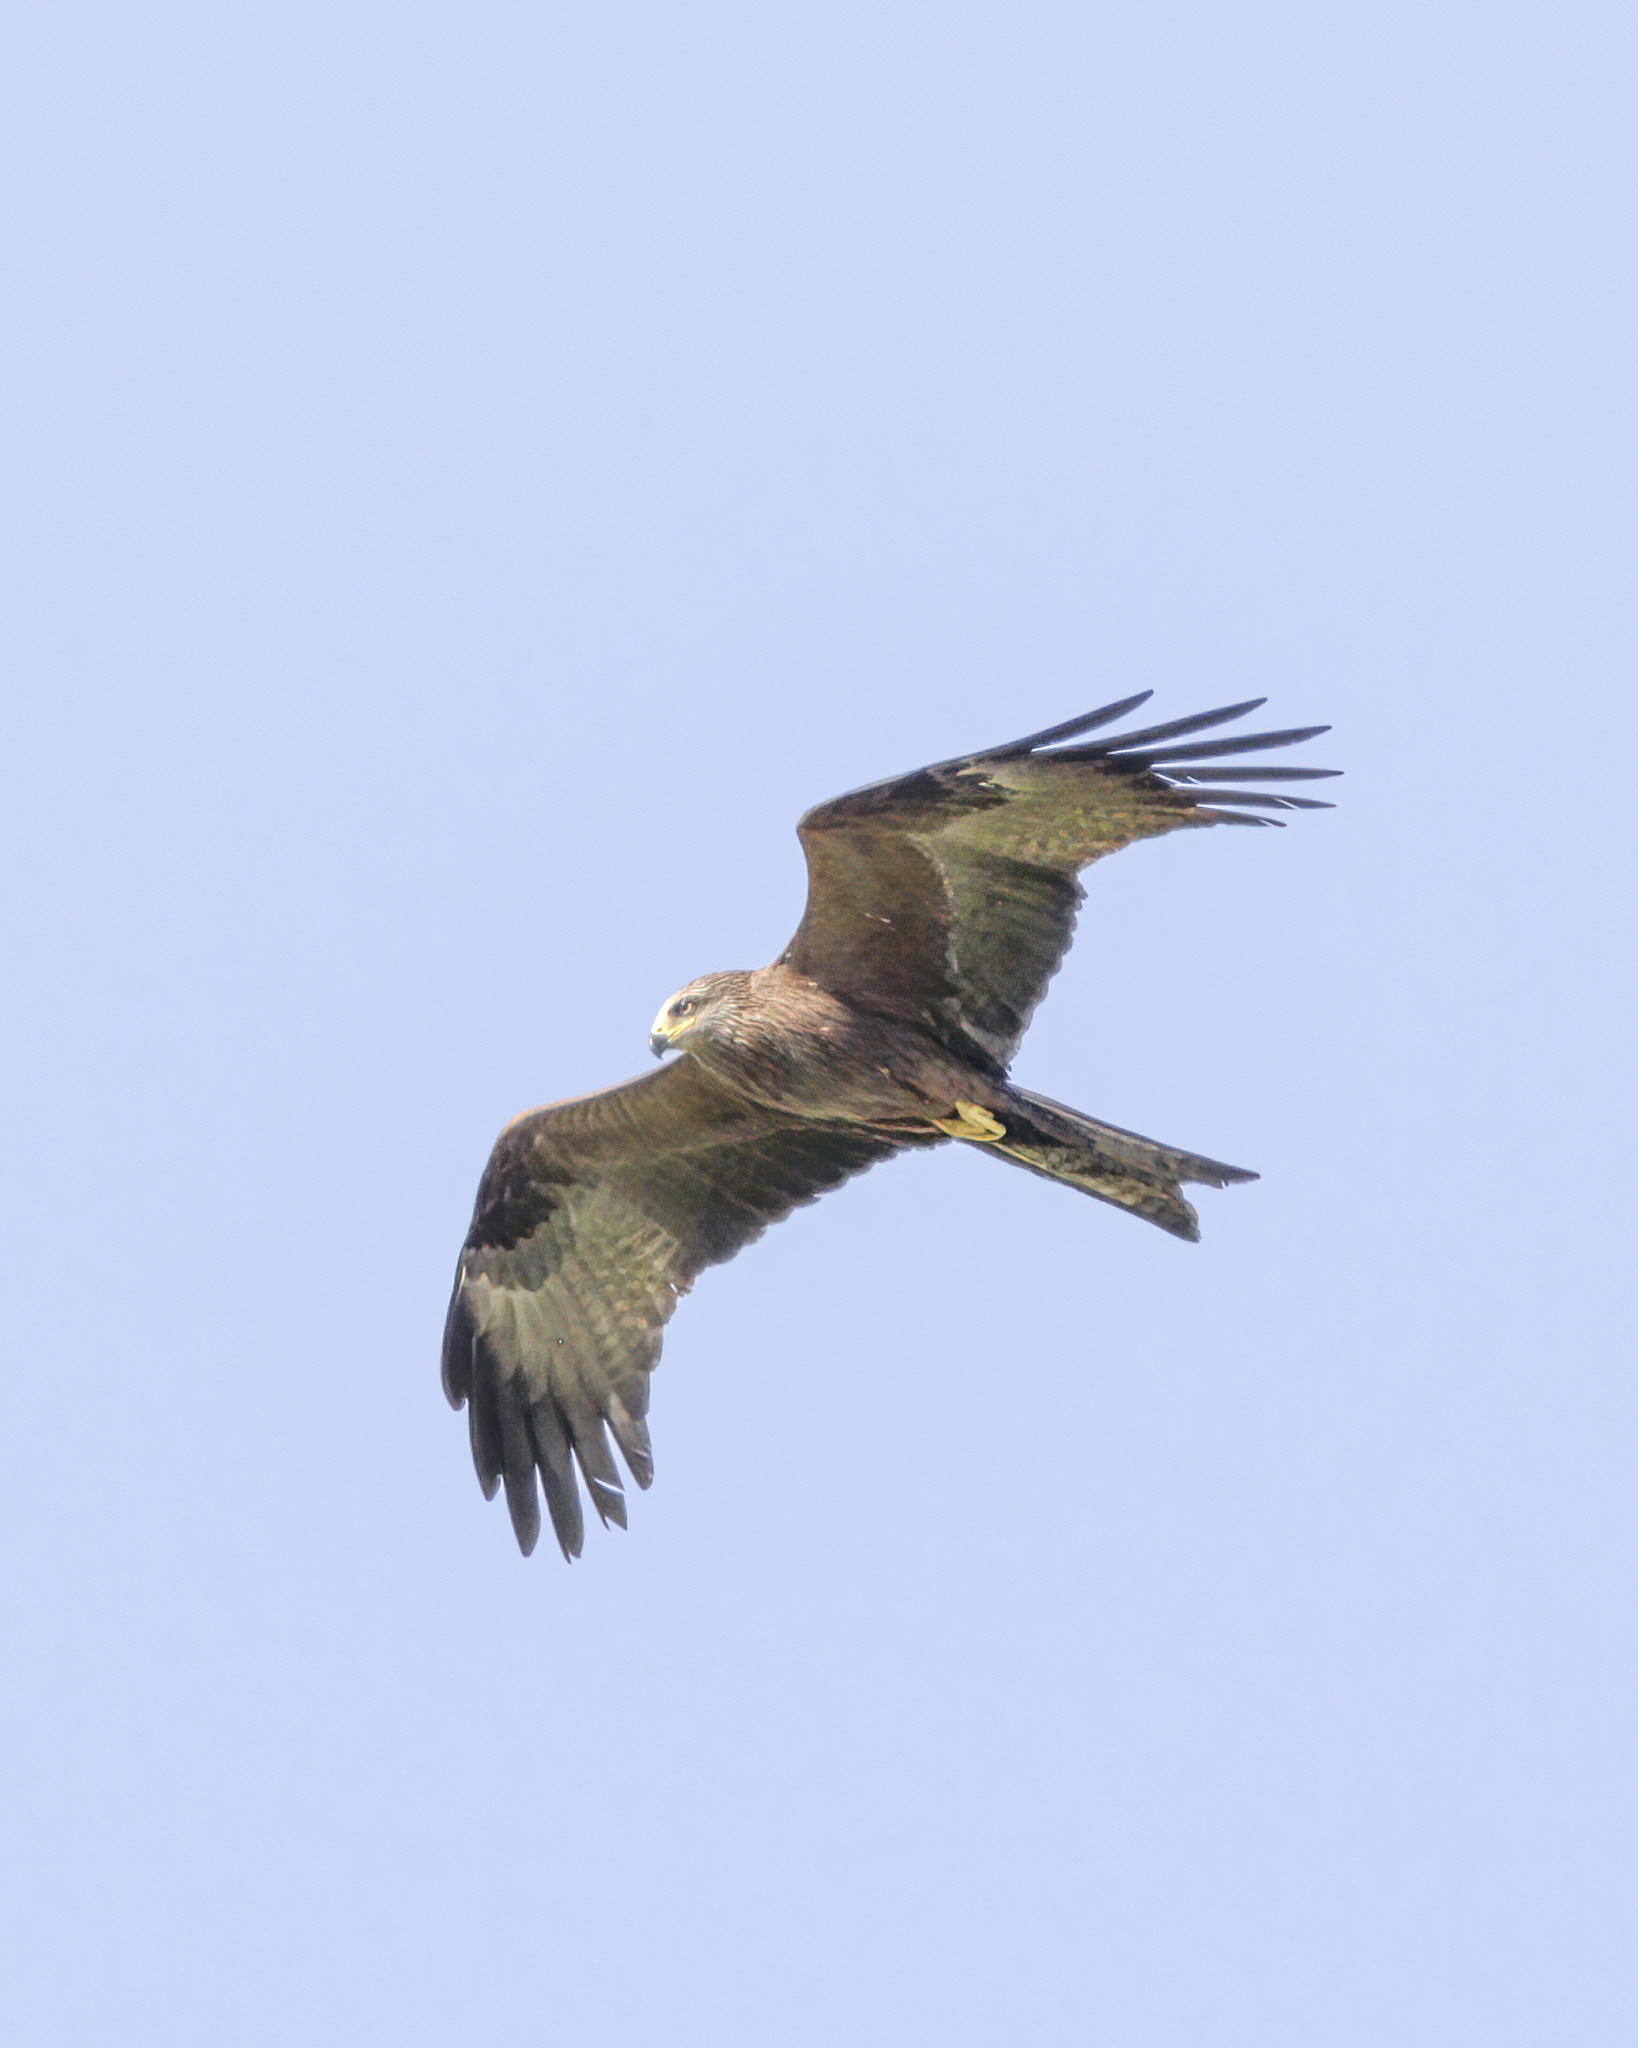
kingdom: Animalia
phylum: Chordata
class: Aves
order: Accipitriformes
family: Accipitridae
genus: Milvus
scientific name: Milvus migrans
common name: Black kite
